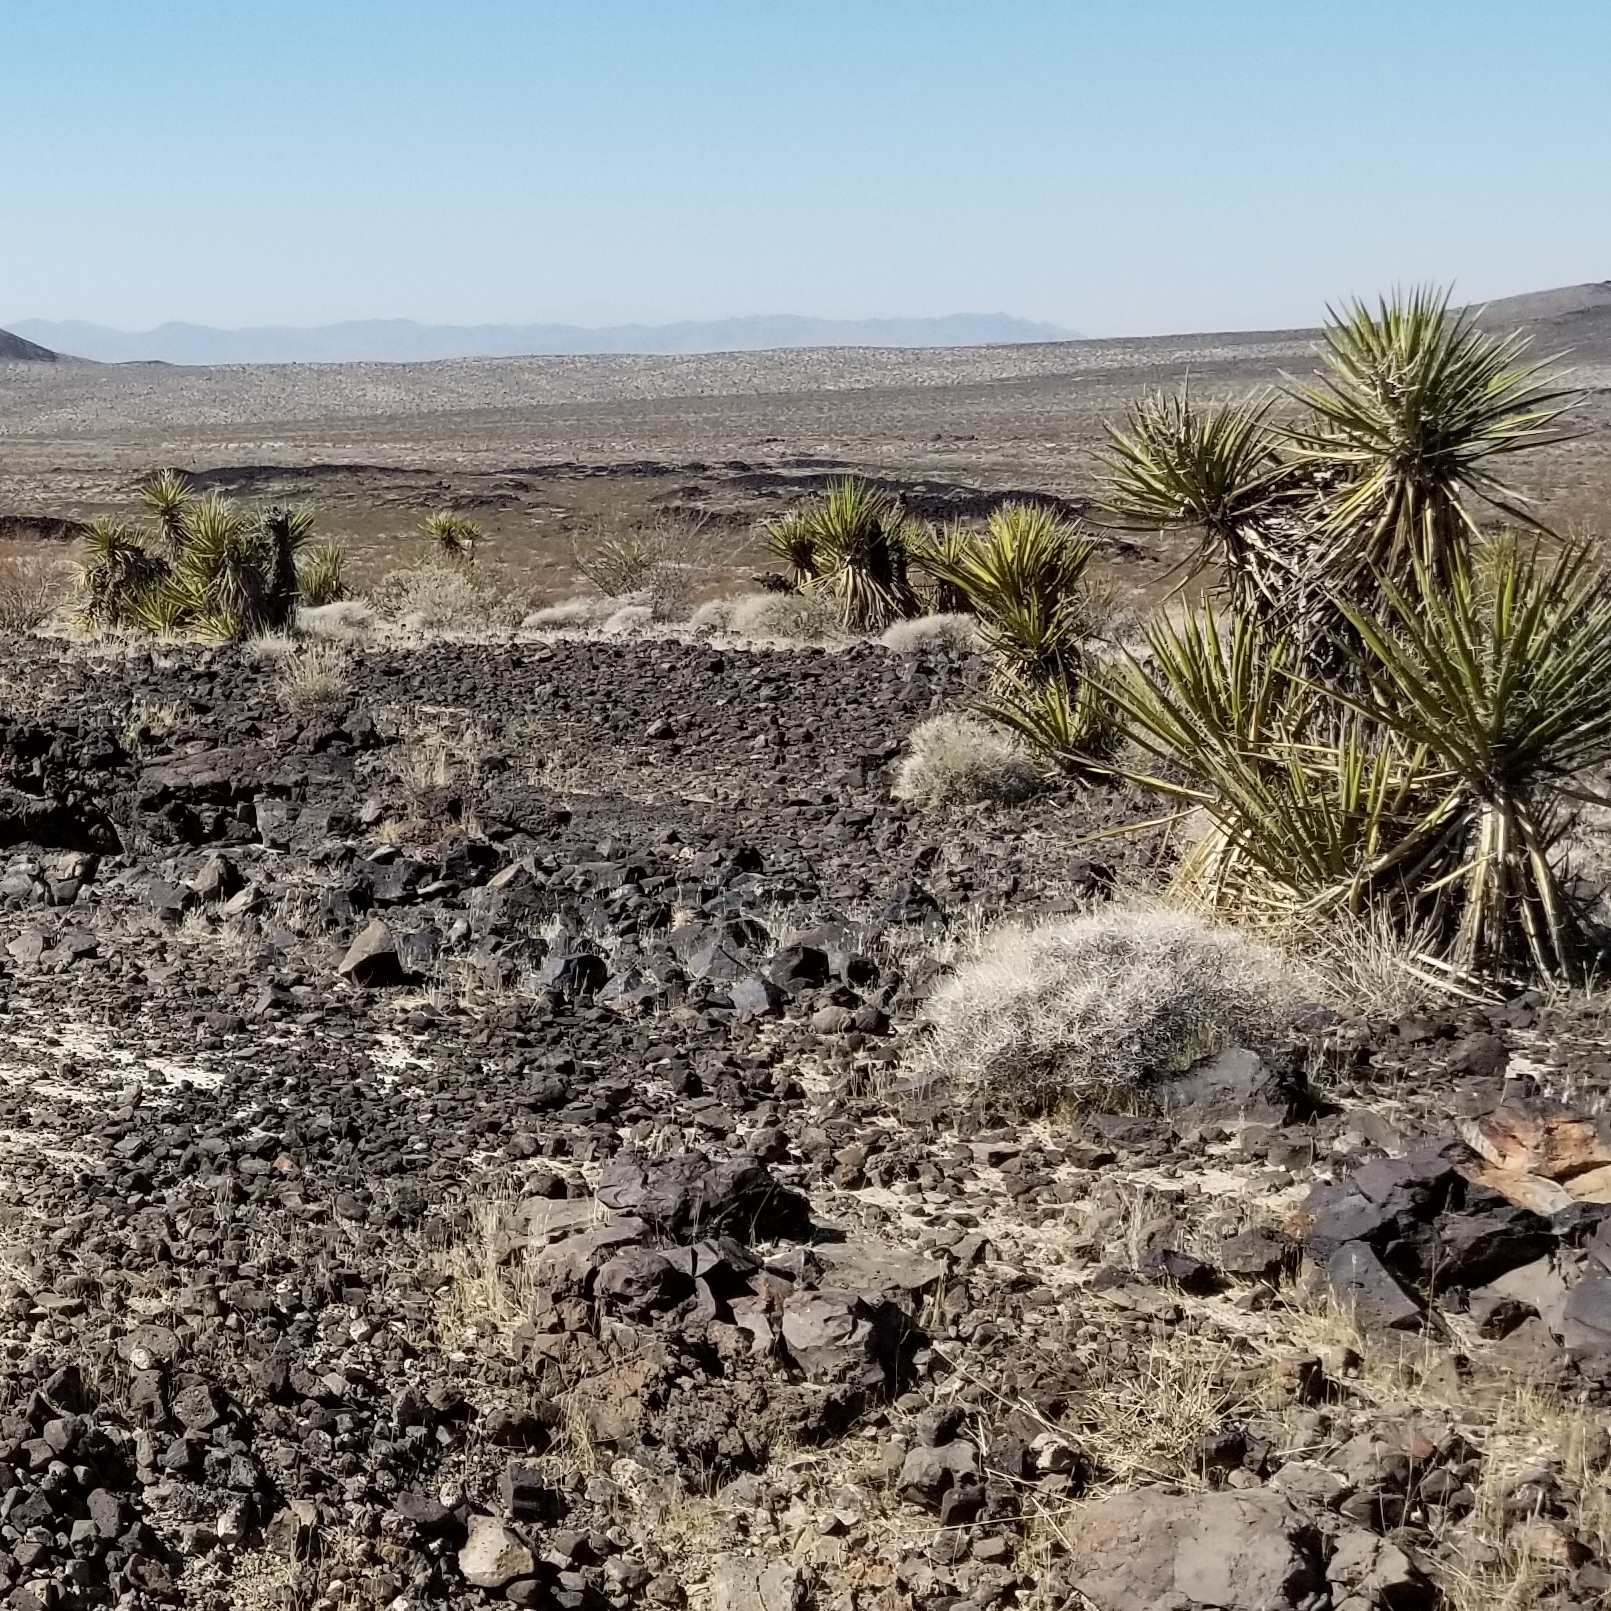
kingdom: Plantae
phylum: Tracheophyta
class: Liliopsida
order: Asparagales
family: Asparagaceae
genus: Yucca
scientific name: Yucca schidigera
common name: Mojave yucca
